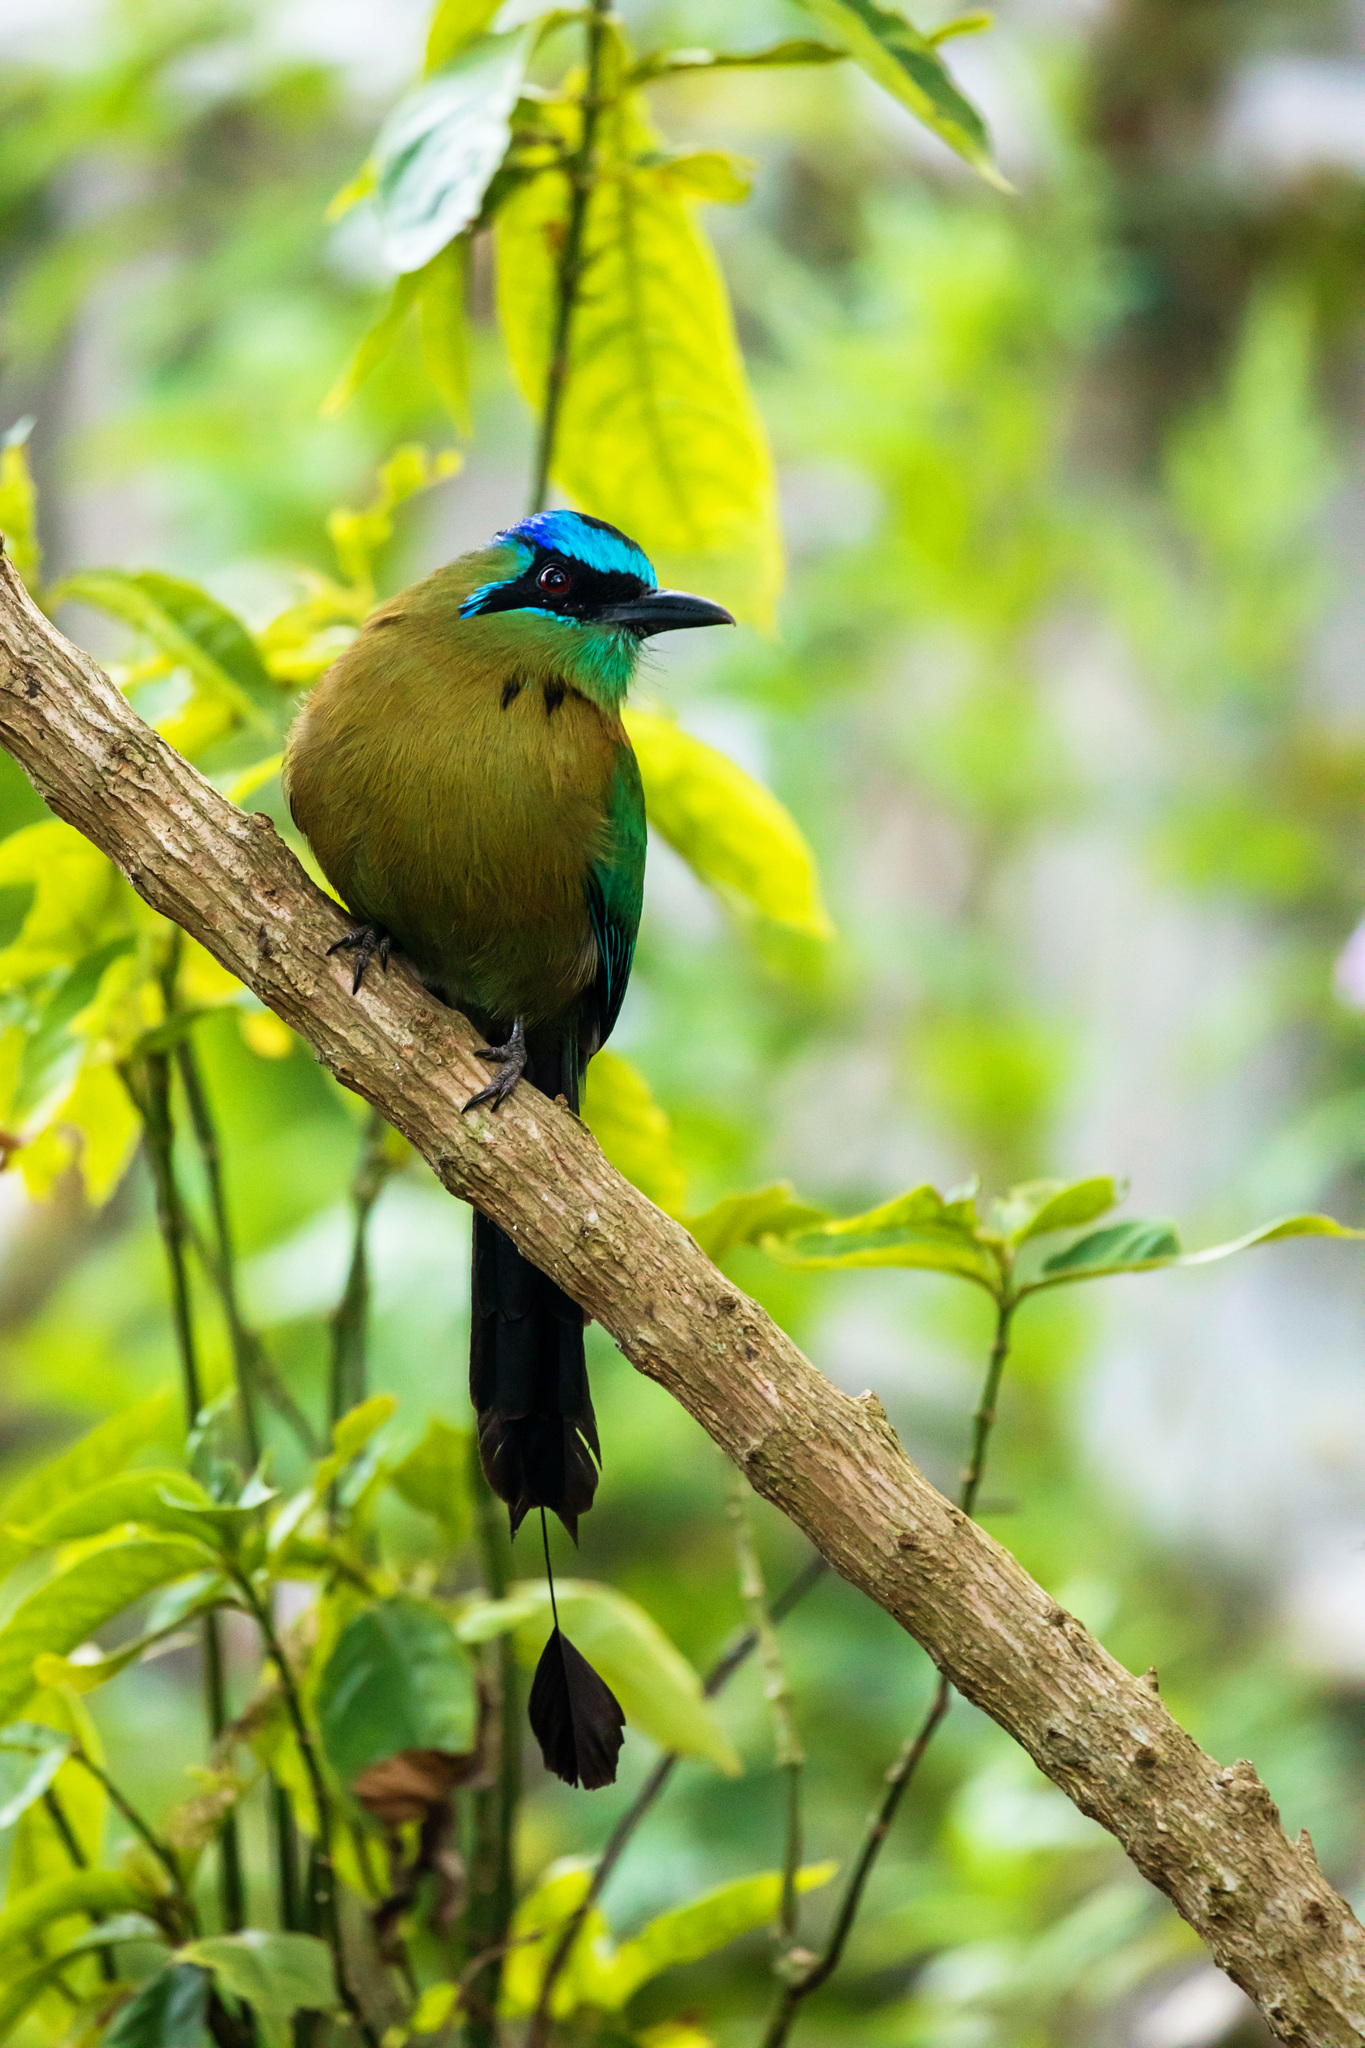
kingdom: Animalia
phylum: Chordata
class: Aves
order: Coraciiformes
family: Momotidae
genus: Momotus
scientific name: Momotus lessonii
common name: Lesson's motmot
